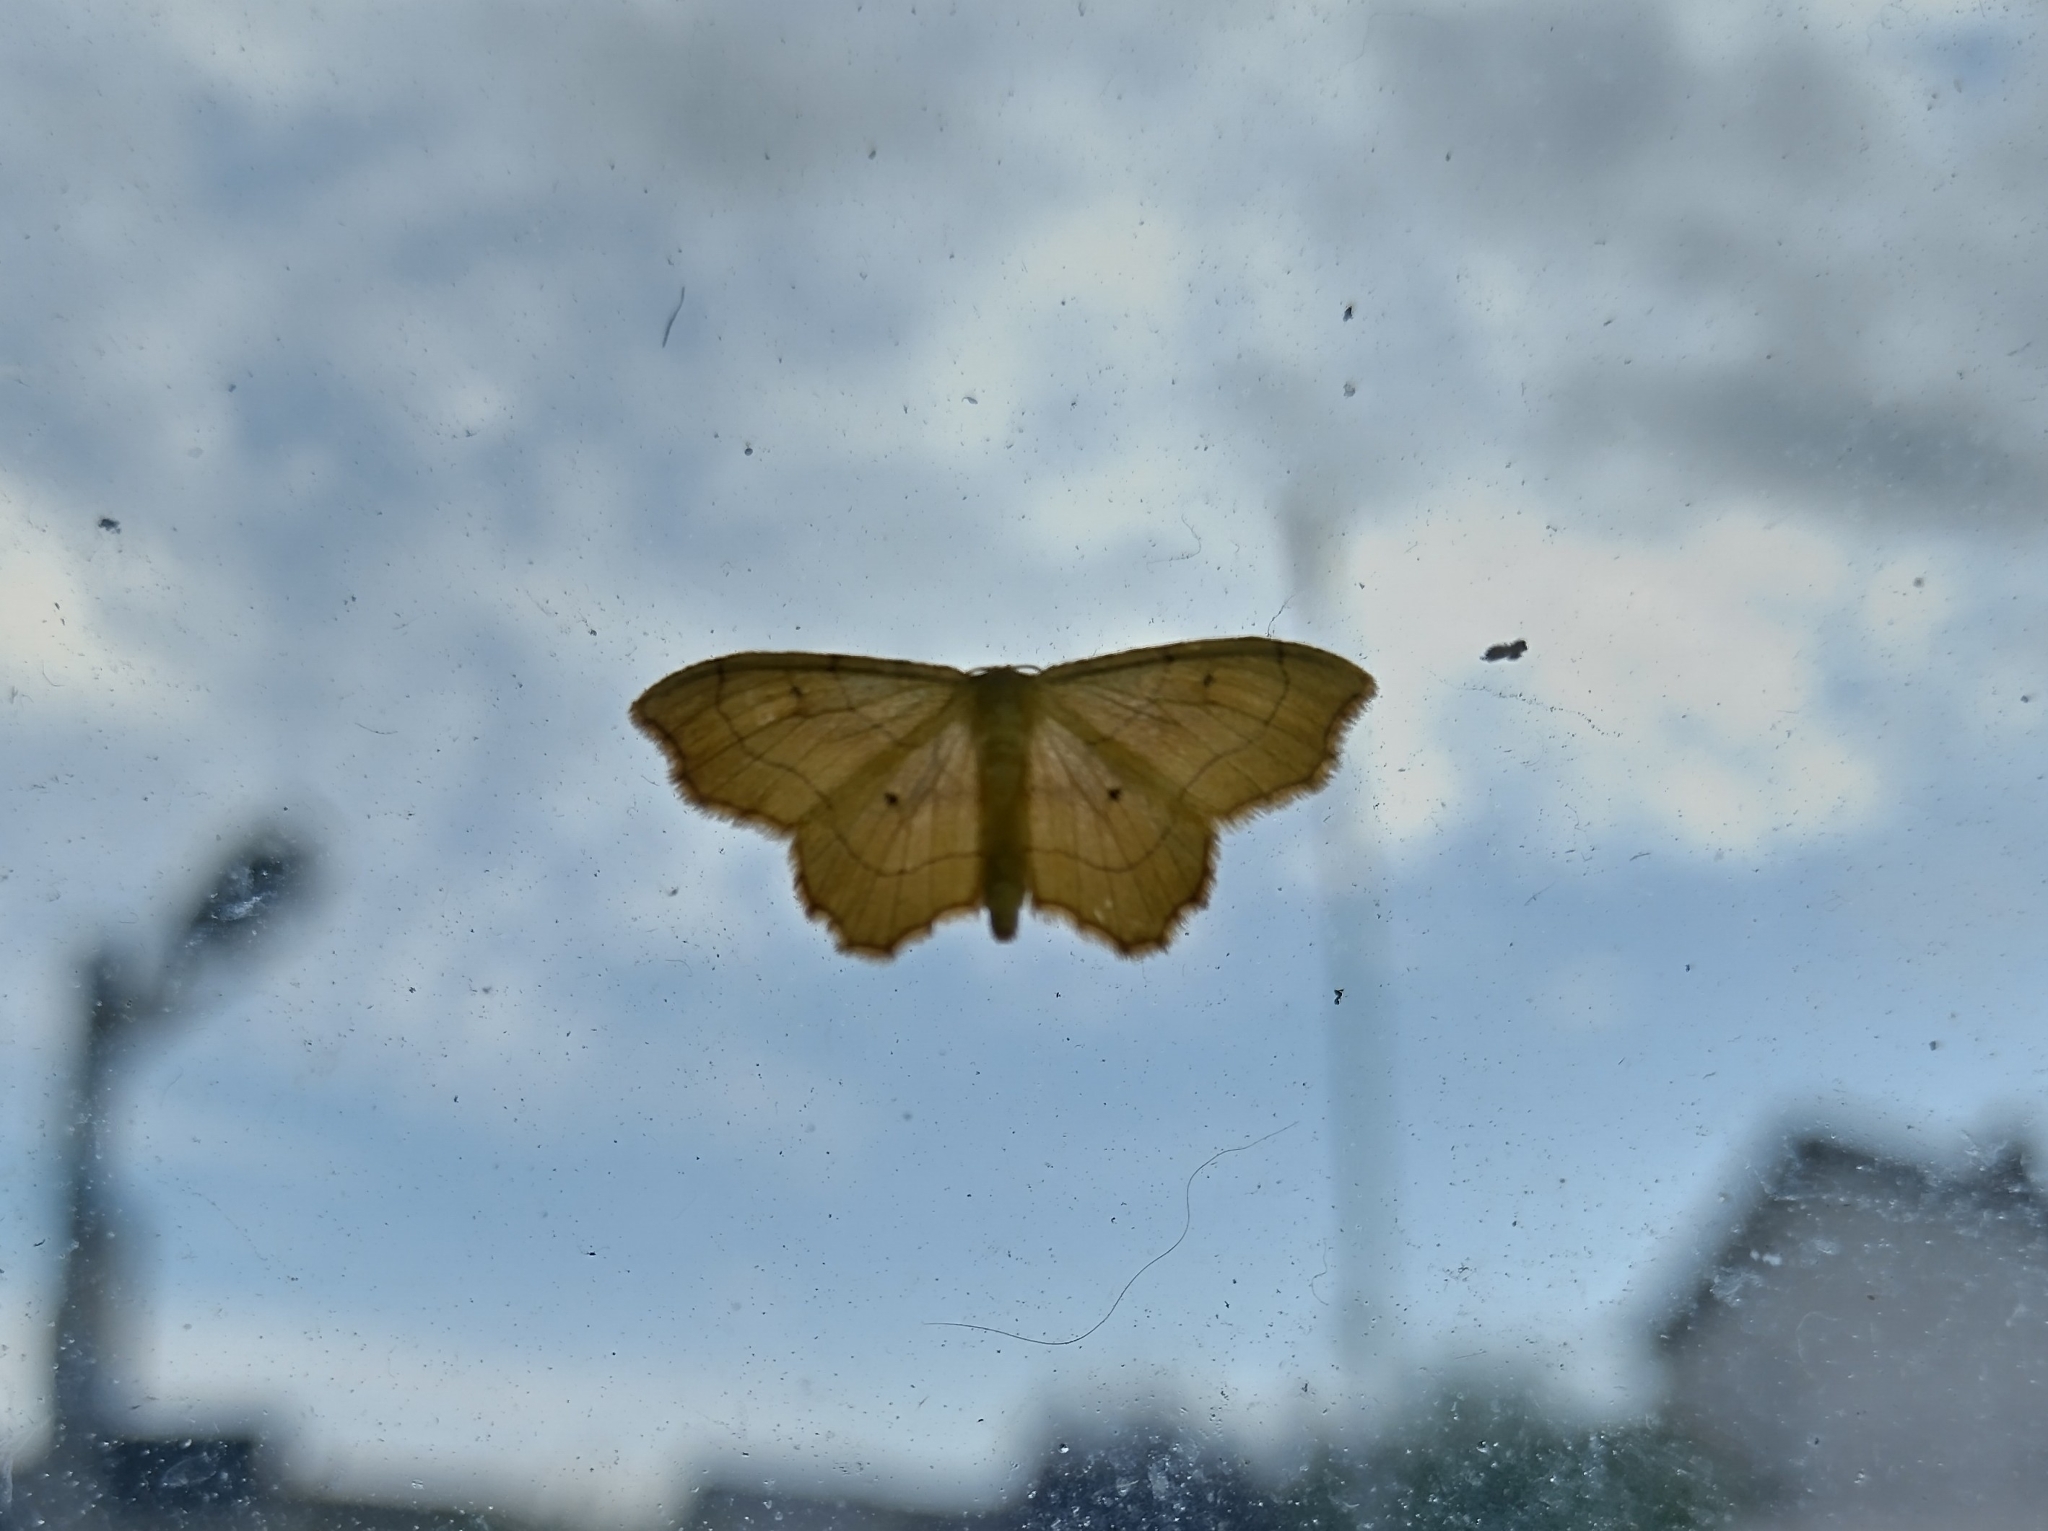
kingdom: Animalia
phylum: Arthropoda
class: Insecta
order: Lepidoptera
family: Geometridae
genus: Idaea
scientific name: Idaea emarginata
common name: Small scallop
